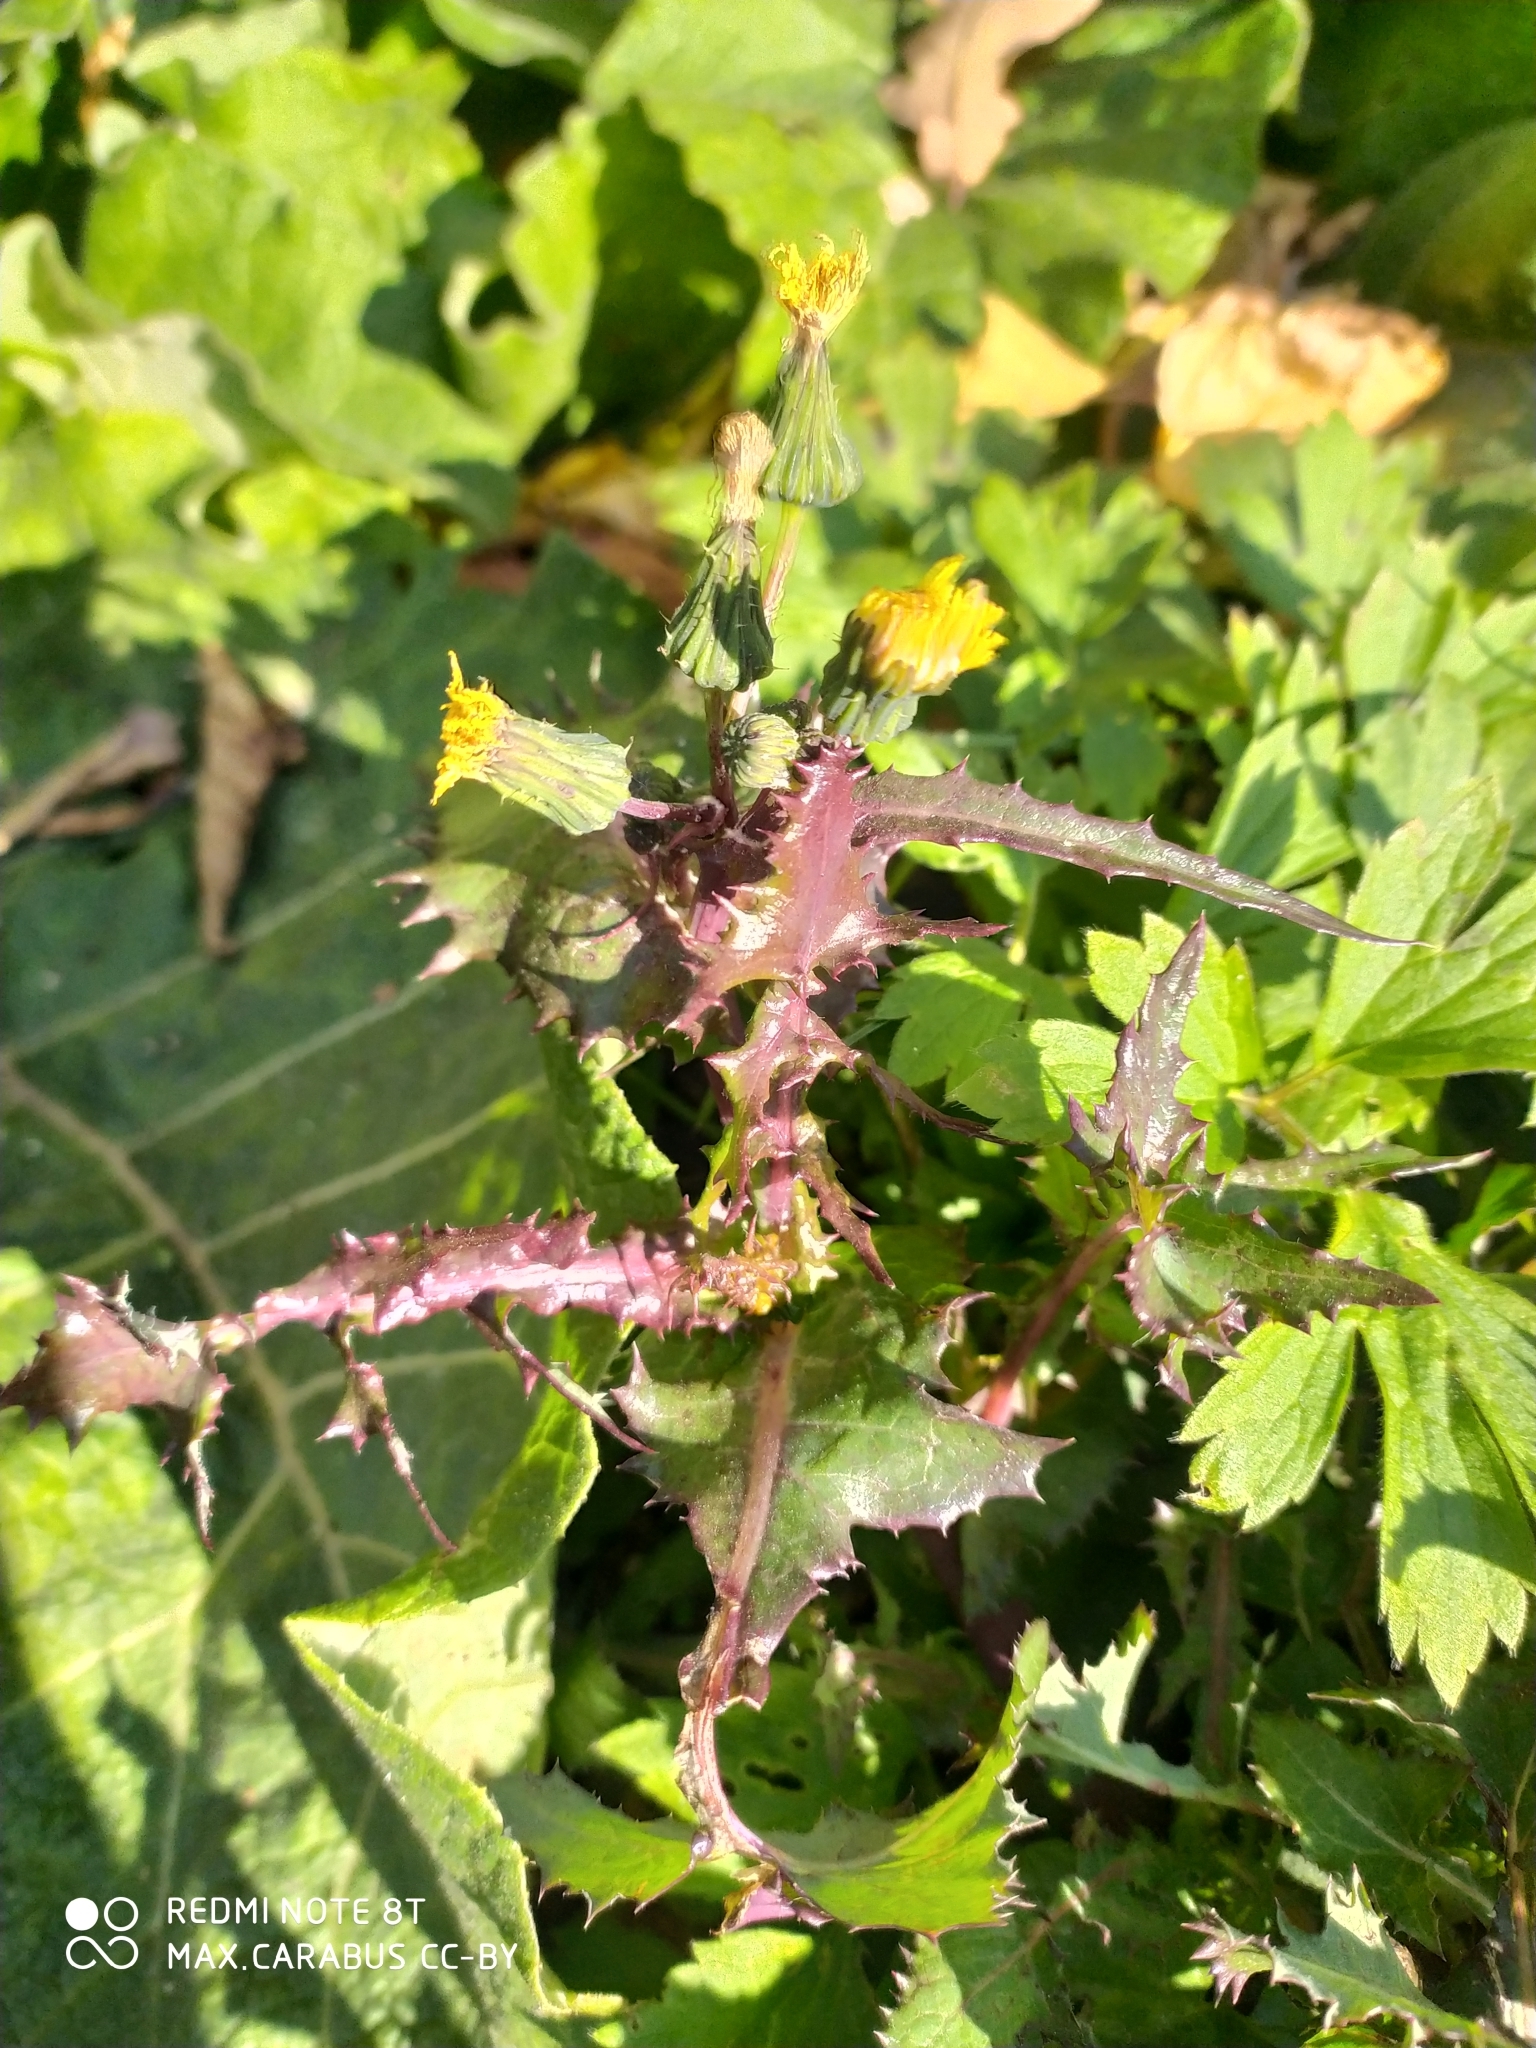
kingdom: Plantae
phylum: Tracheophyta
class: Magnoliopsida
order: Asterales
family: Asteraceae
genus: Sonchus
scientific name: Sonchus oleraceus
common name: Common sowthistle
